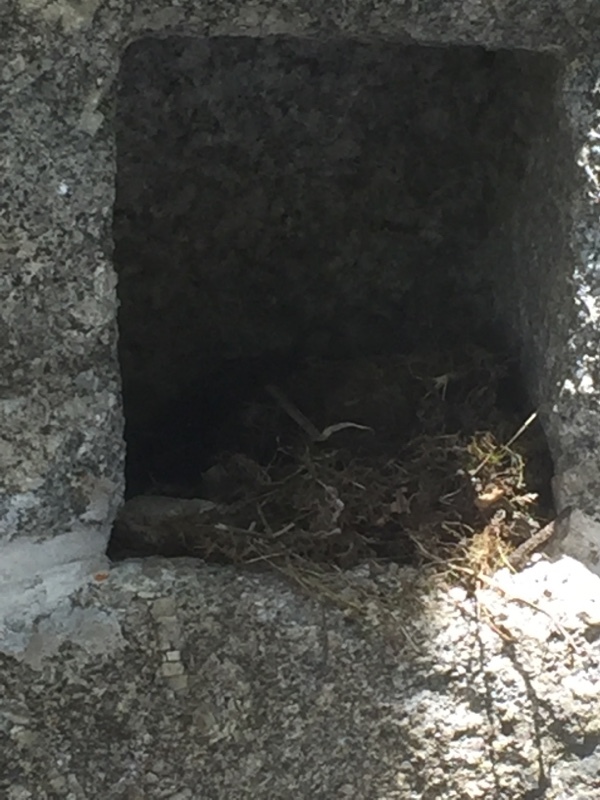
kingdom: Animalia
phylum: Chordata
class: Aves
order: Passeriformes
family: Muscicapidae
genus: Erithacus
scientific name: Erithacus rubecula
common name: European robin
